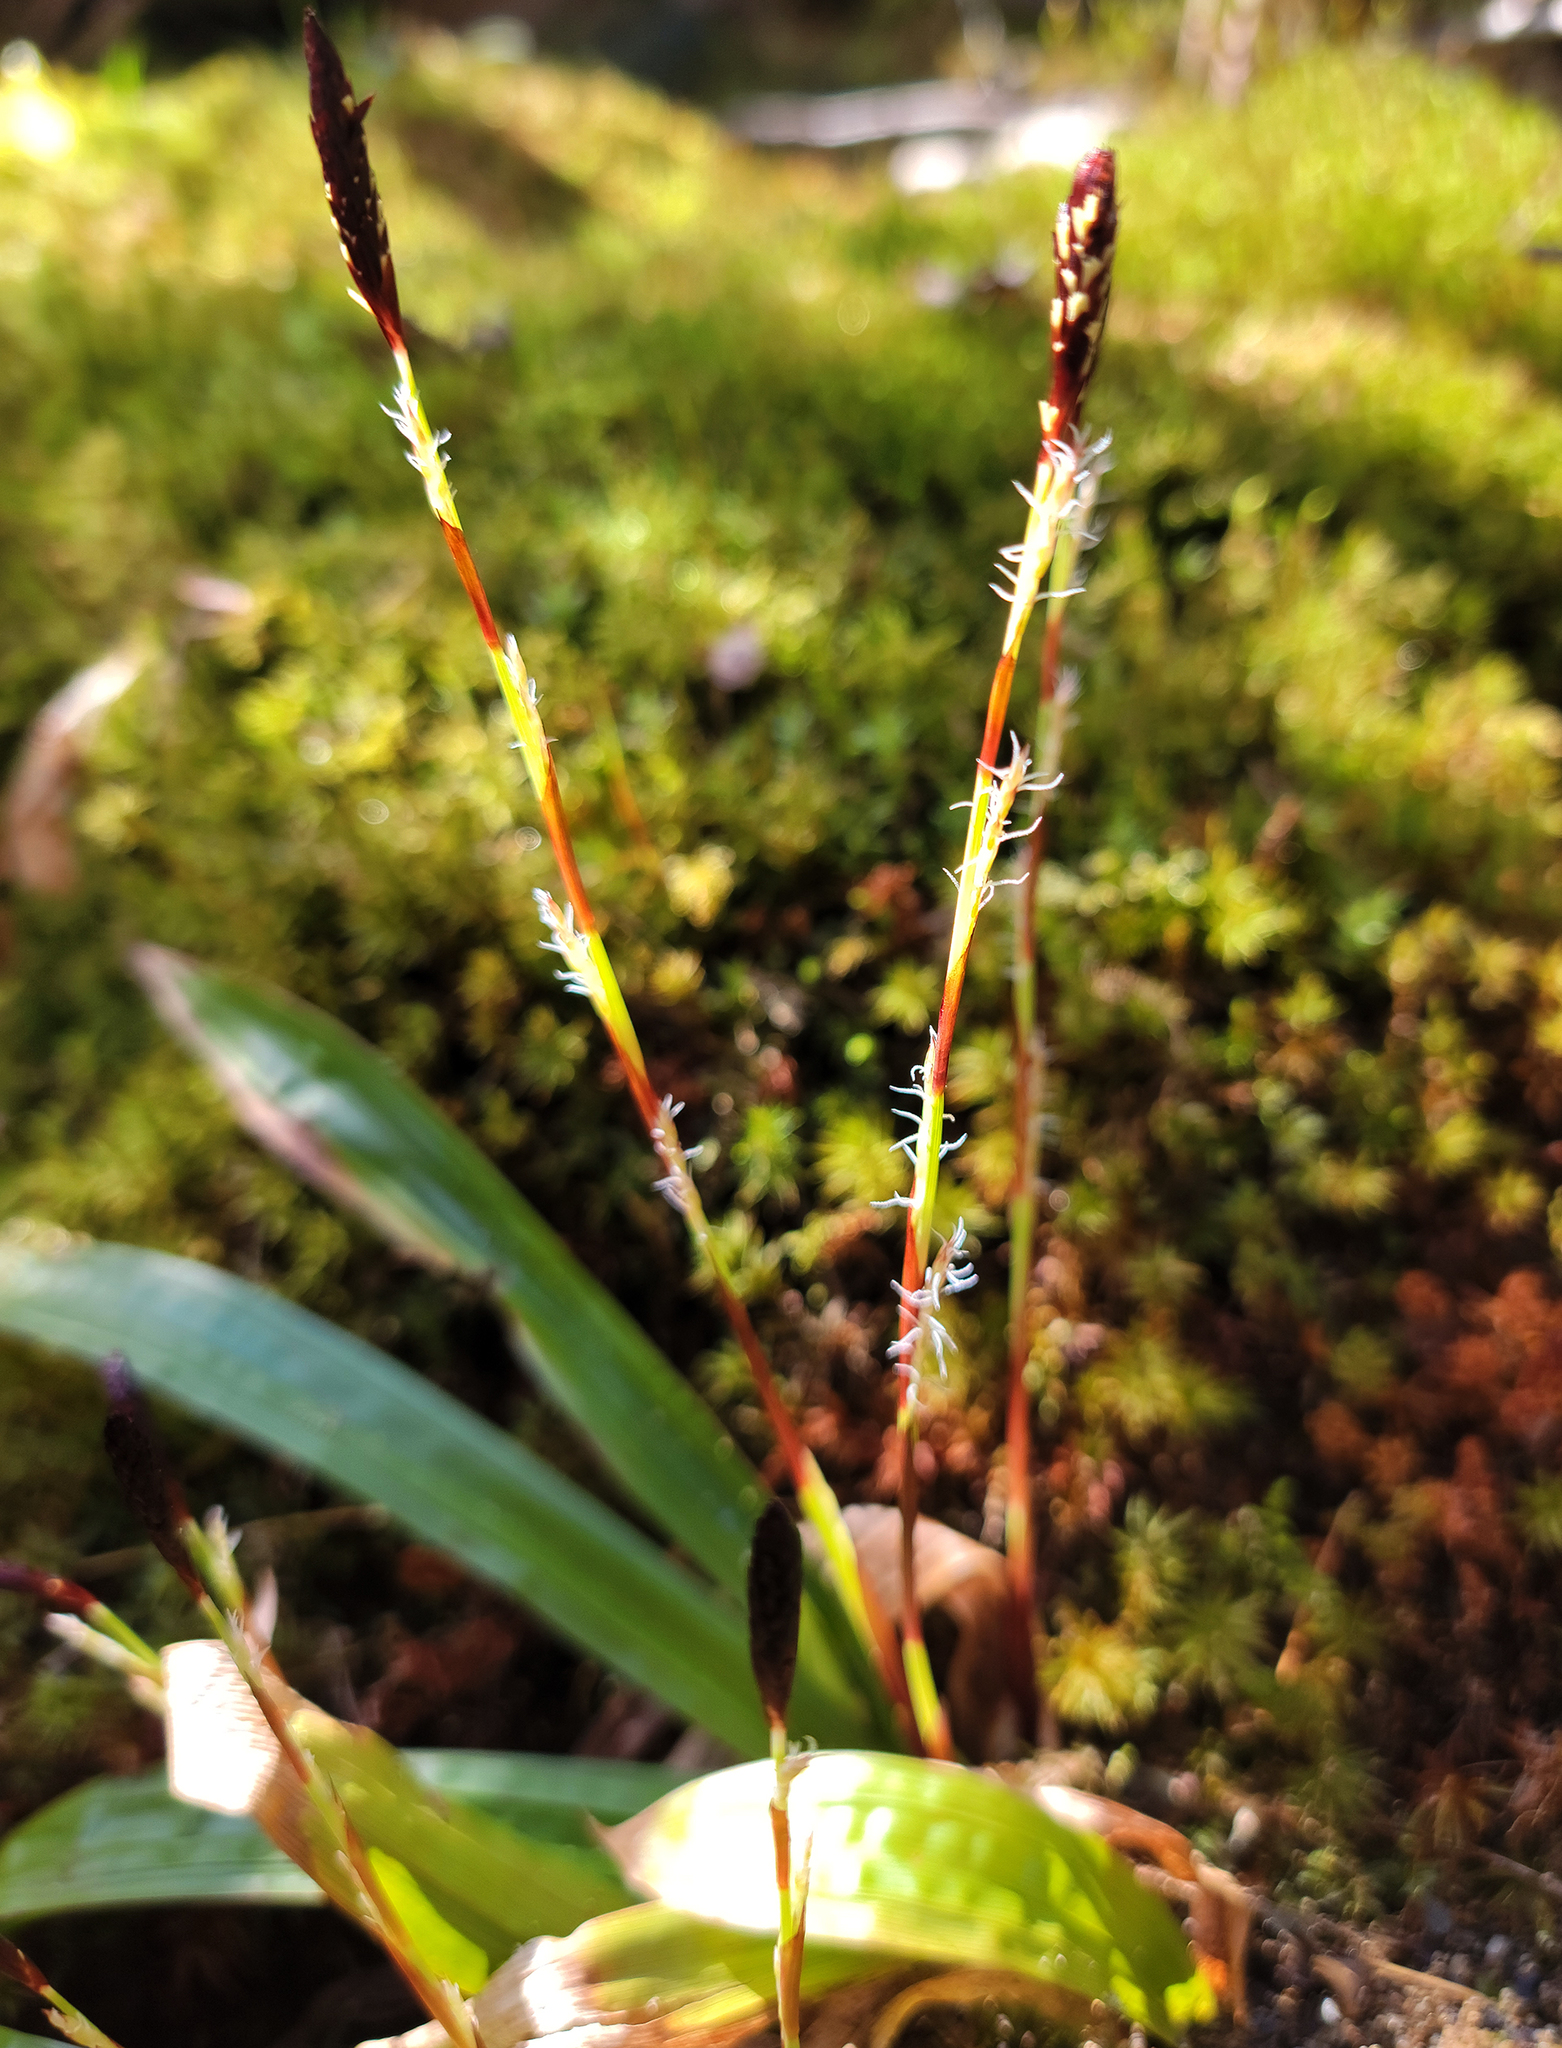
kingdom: Plantae
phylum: Tracheophyta
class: Liliopsida
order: Poales
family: Cyperaceae
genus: Carex
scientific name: Carex plantaginea
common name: Plantain-leaved sedge
